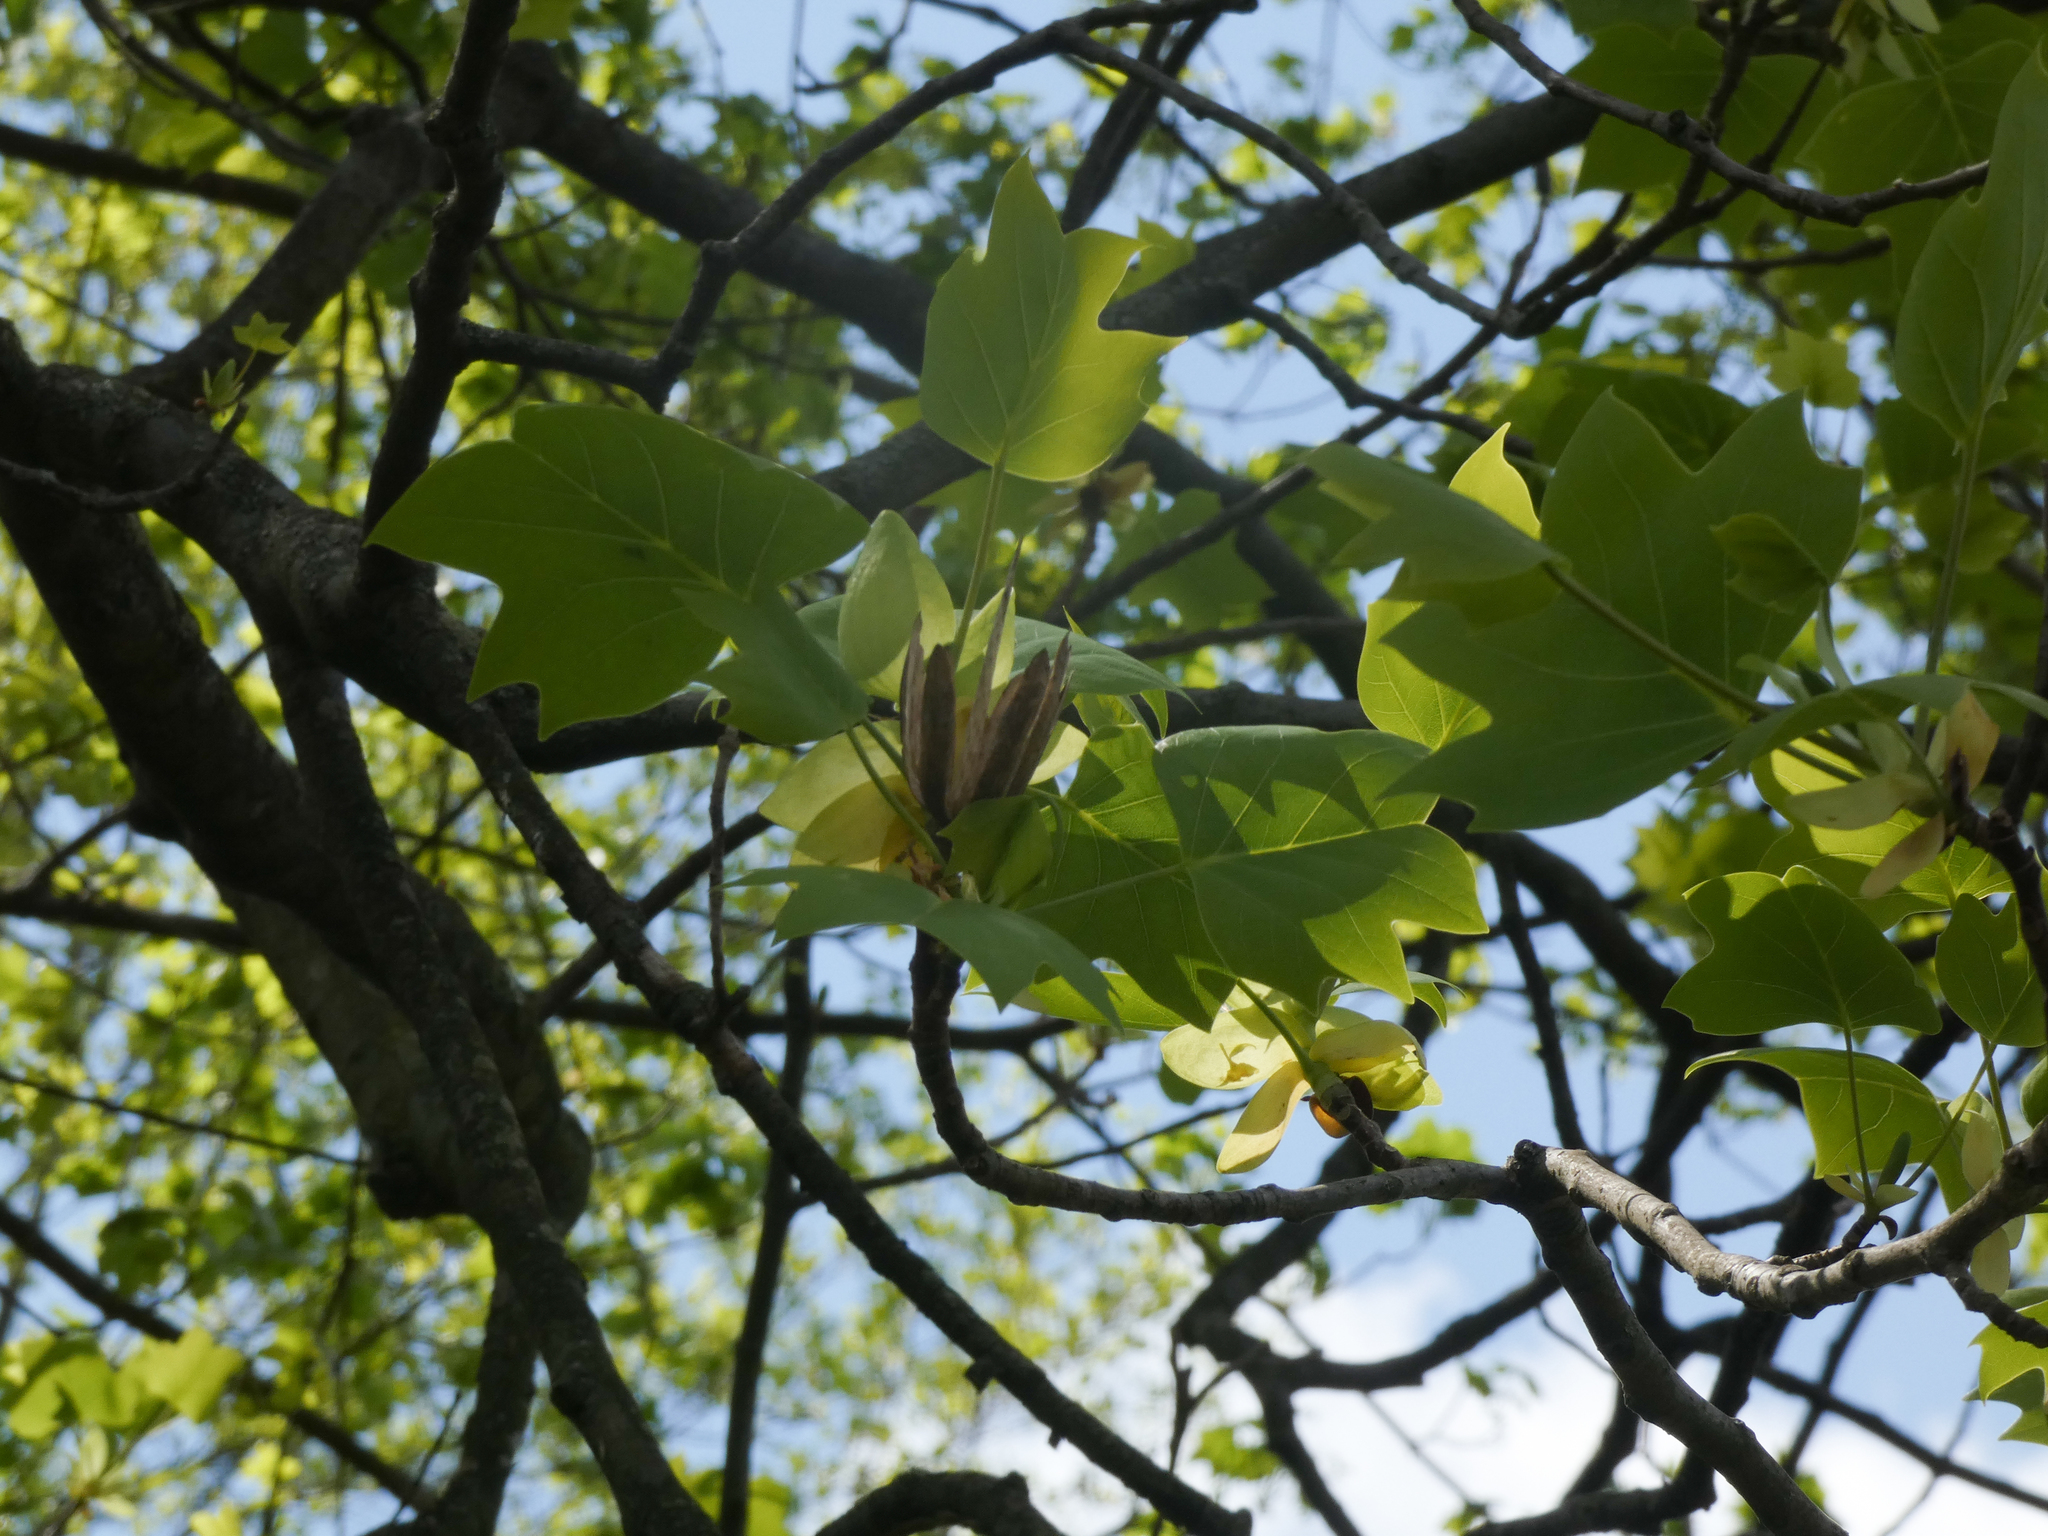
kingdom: Plantae
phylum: Tracheophyta
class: Magnoliopsida
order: Magnoliales
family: Magnoliaceae
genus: Liriodendron
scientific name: Liriodendron tulipifera
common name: Tulip tree
